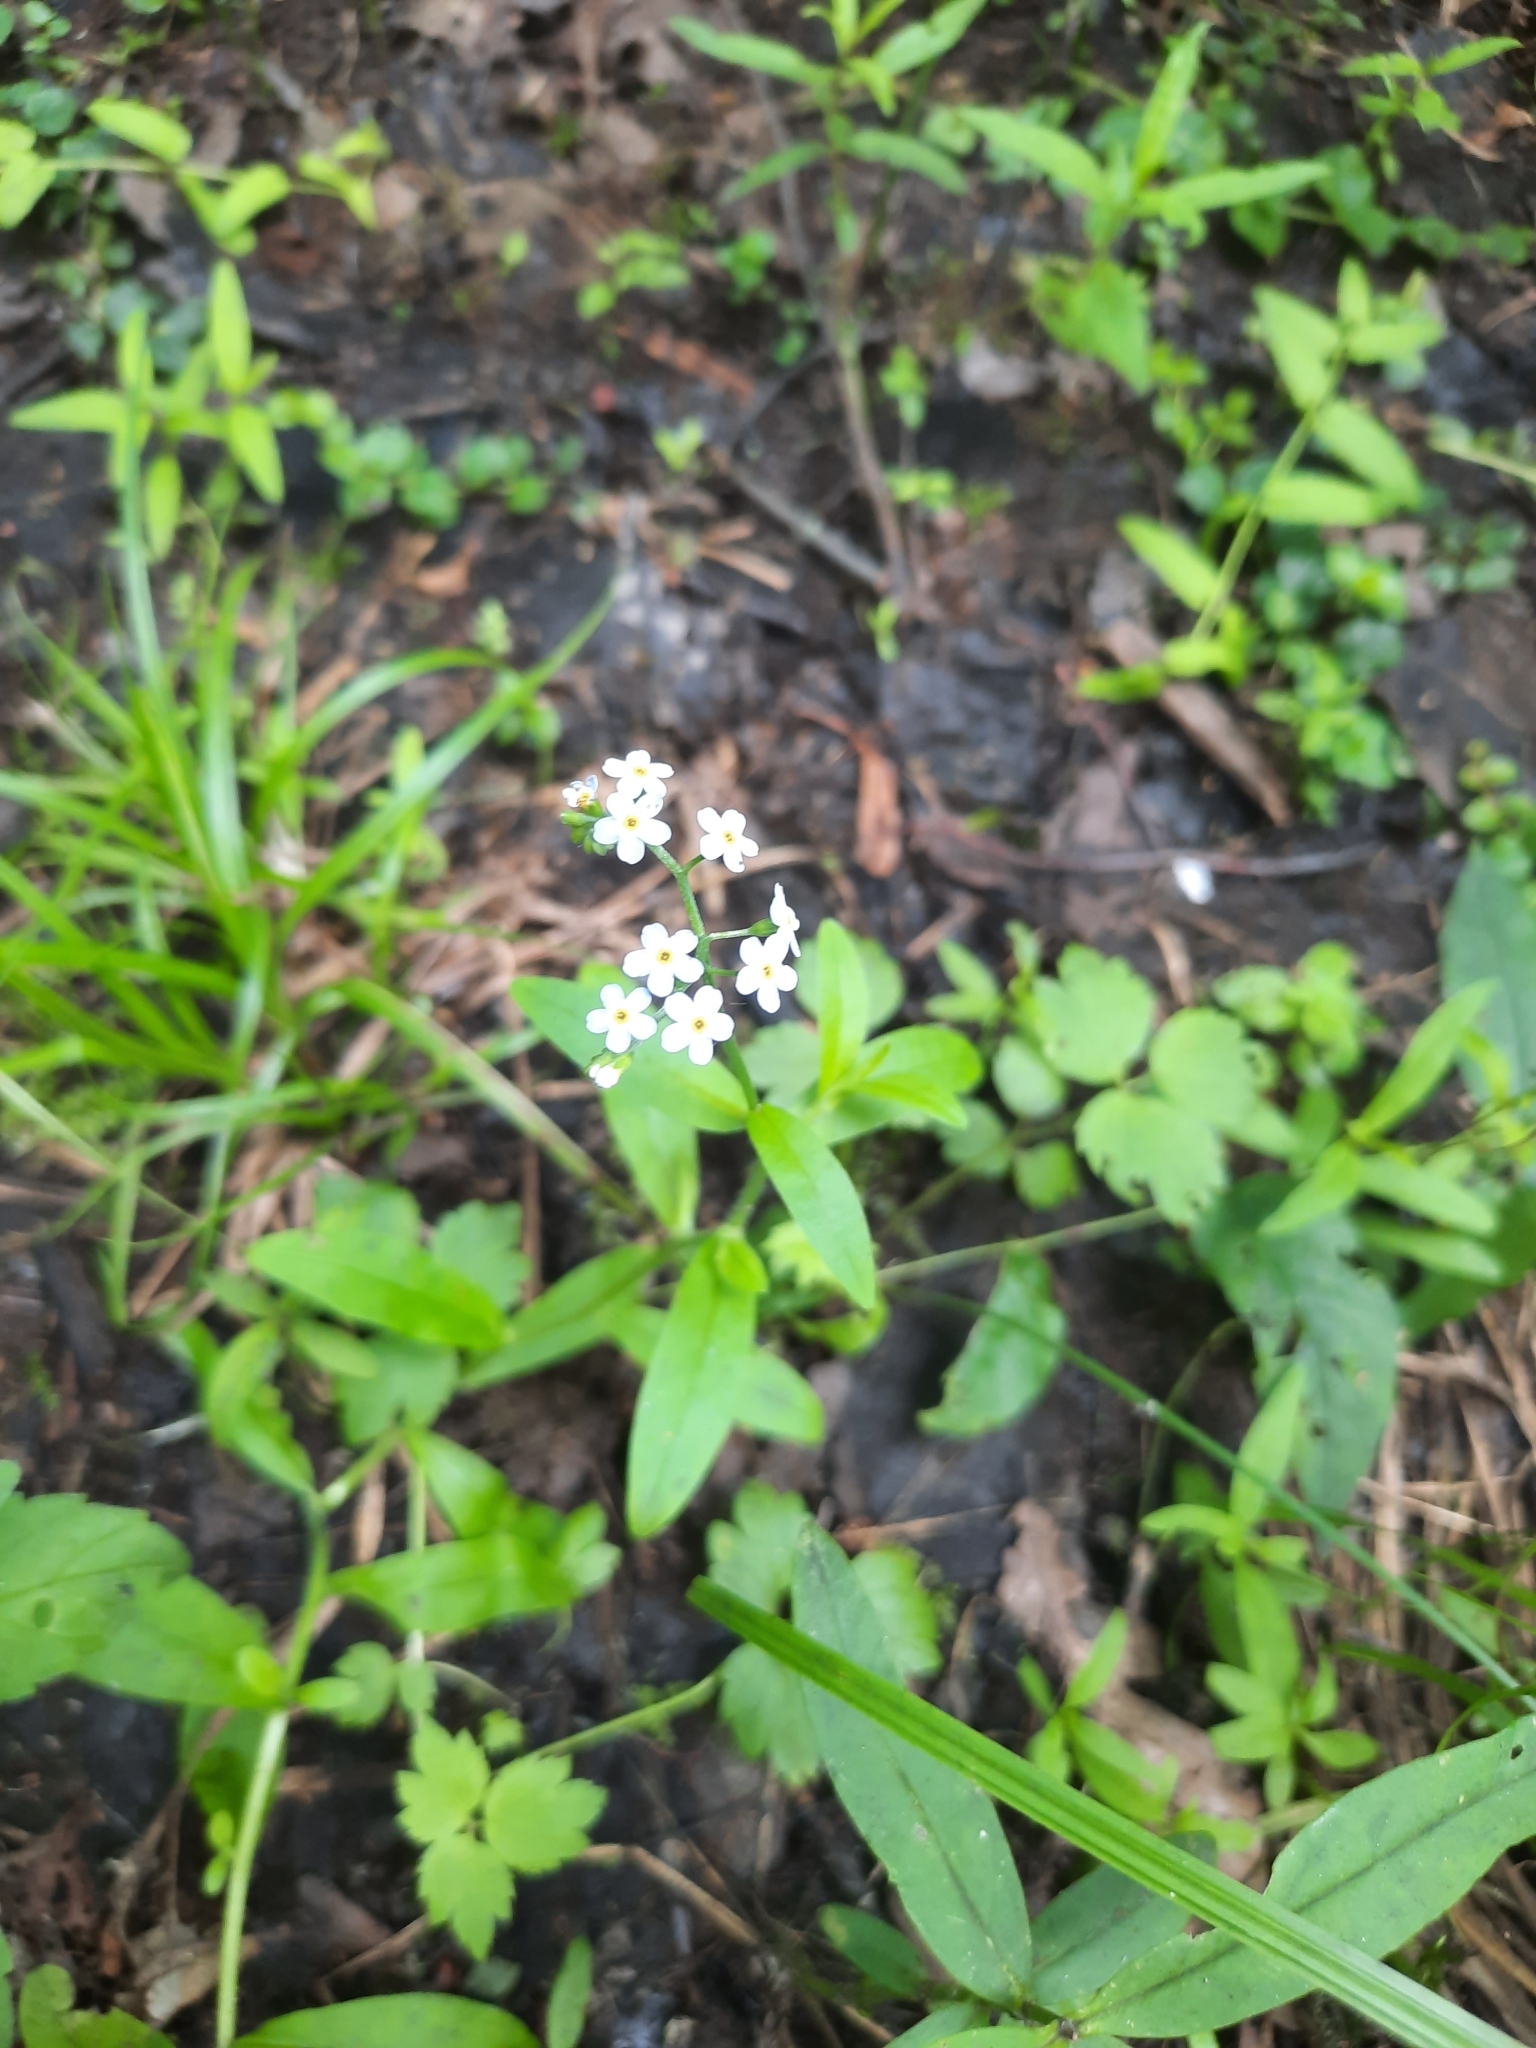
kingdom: Plantae
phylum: Tracheophyta
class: Magnoliopsida
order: Boraginales
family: Boraginaceae
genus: Myosotis
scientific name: Myosotis scorpioides
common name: Water forget-me-not
